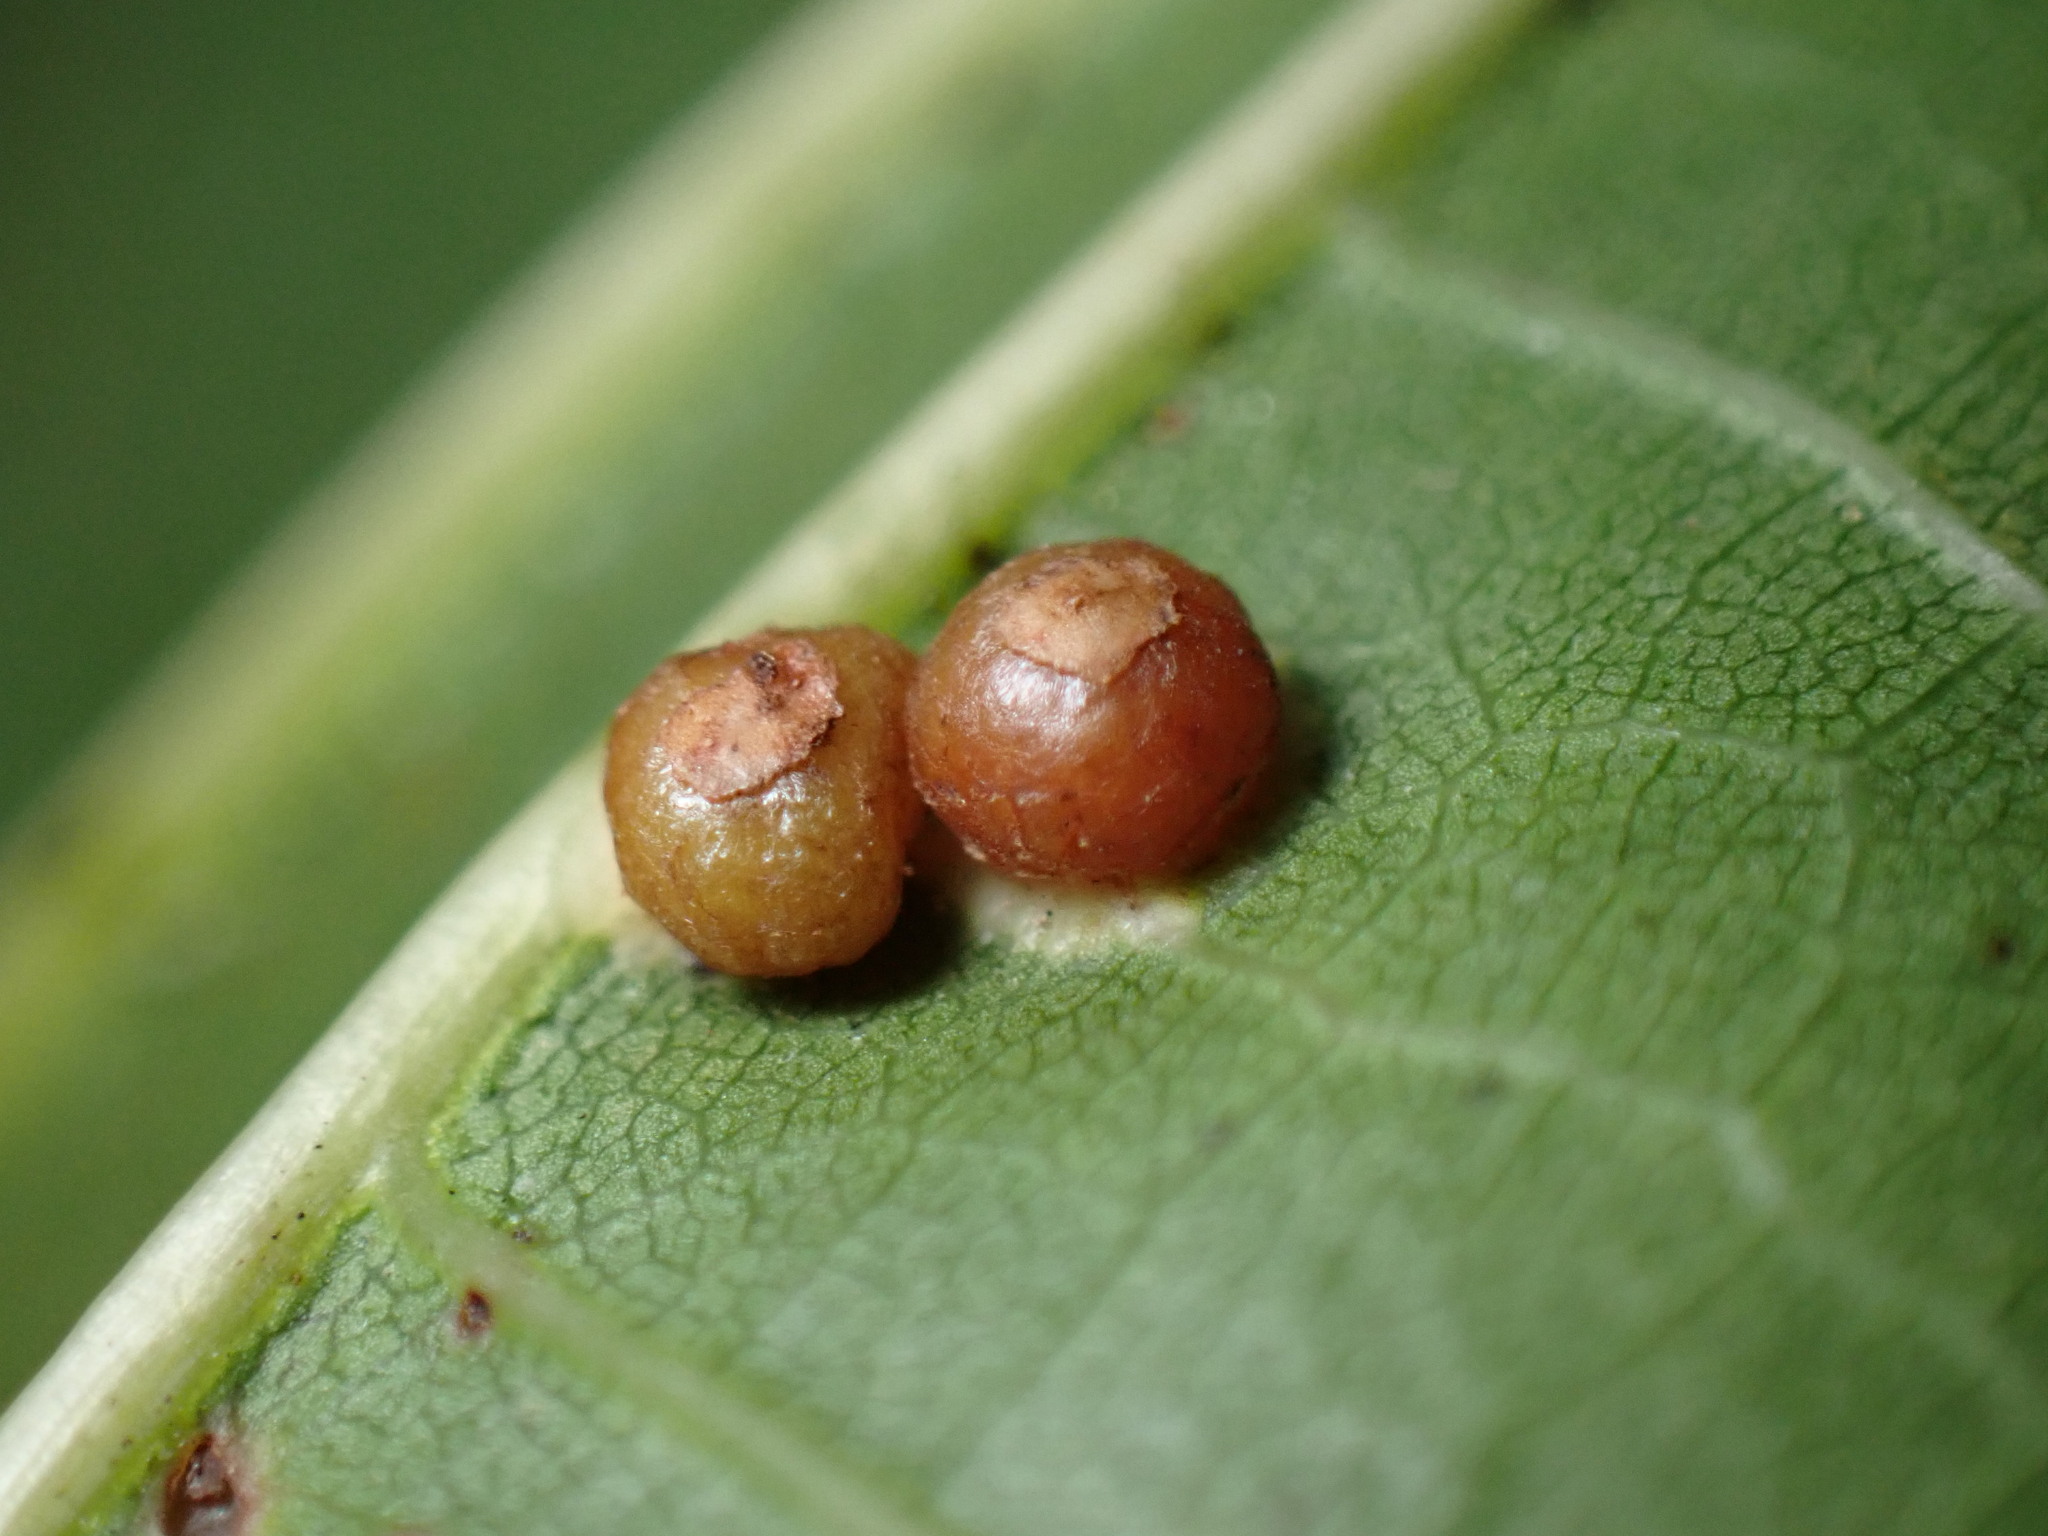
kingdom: Animalia
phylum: Arthropoda
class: Insecta
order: Diptera
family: Cecidomyiidae
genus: Polystepha
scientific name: Polystepha globosa
